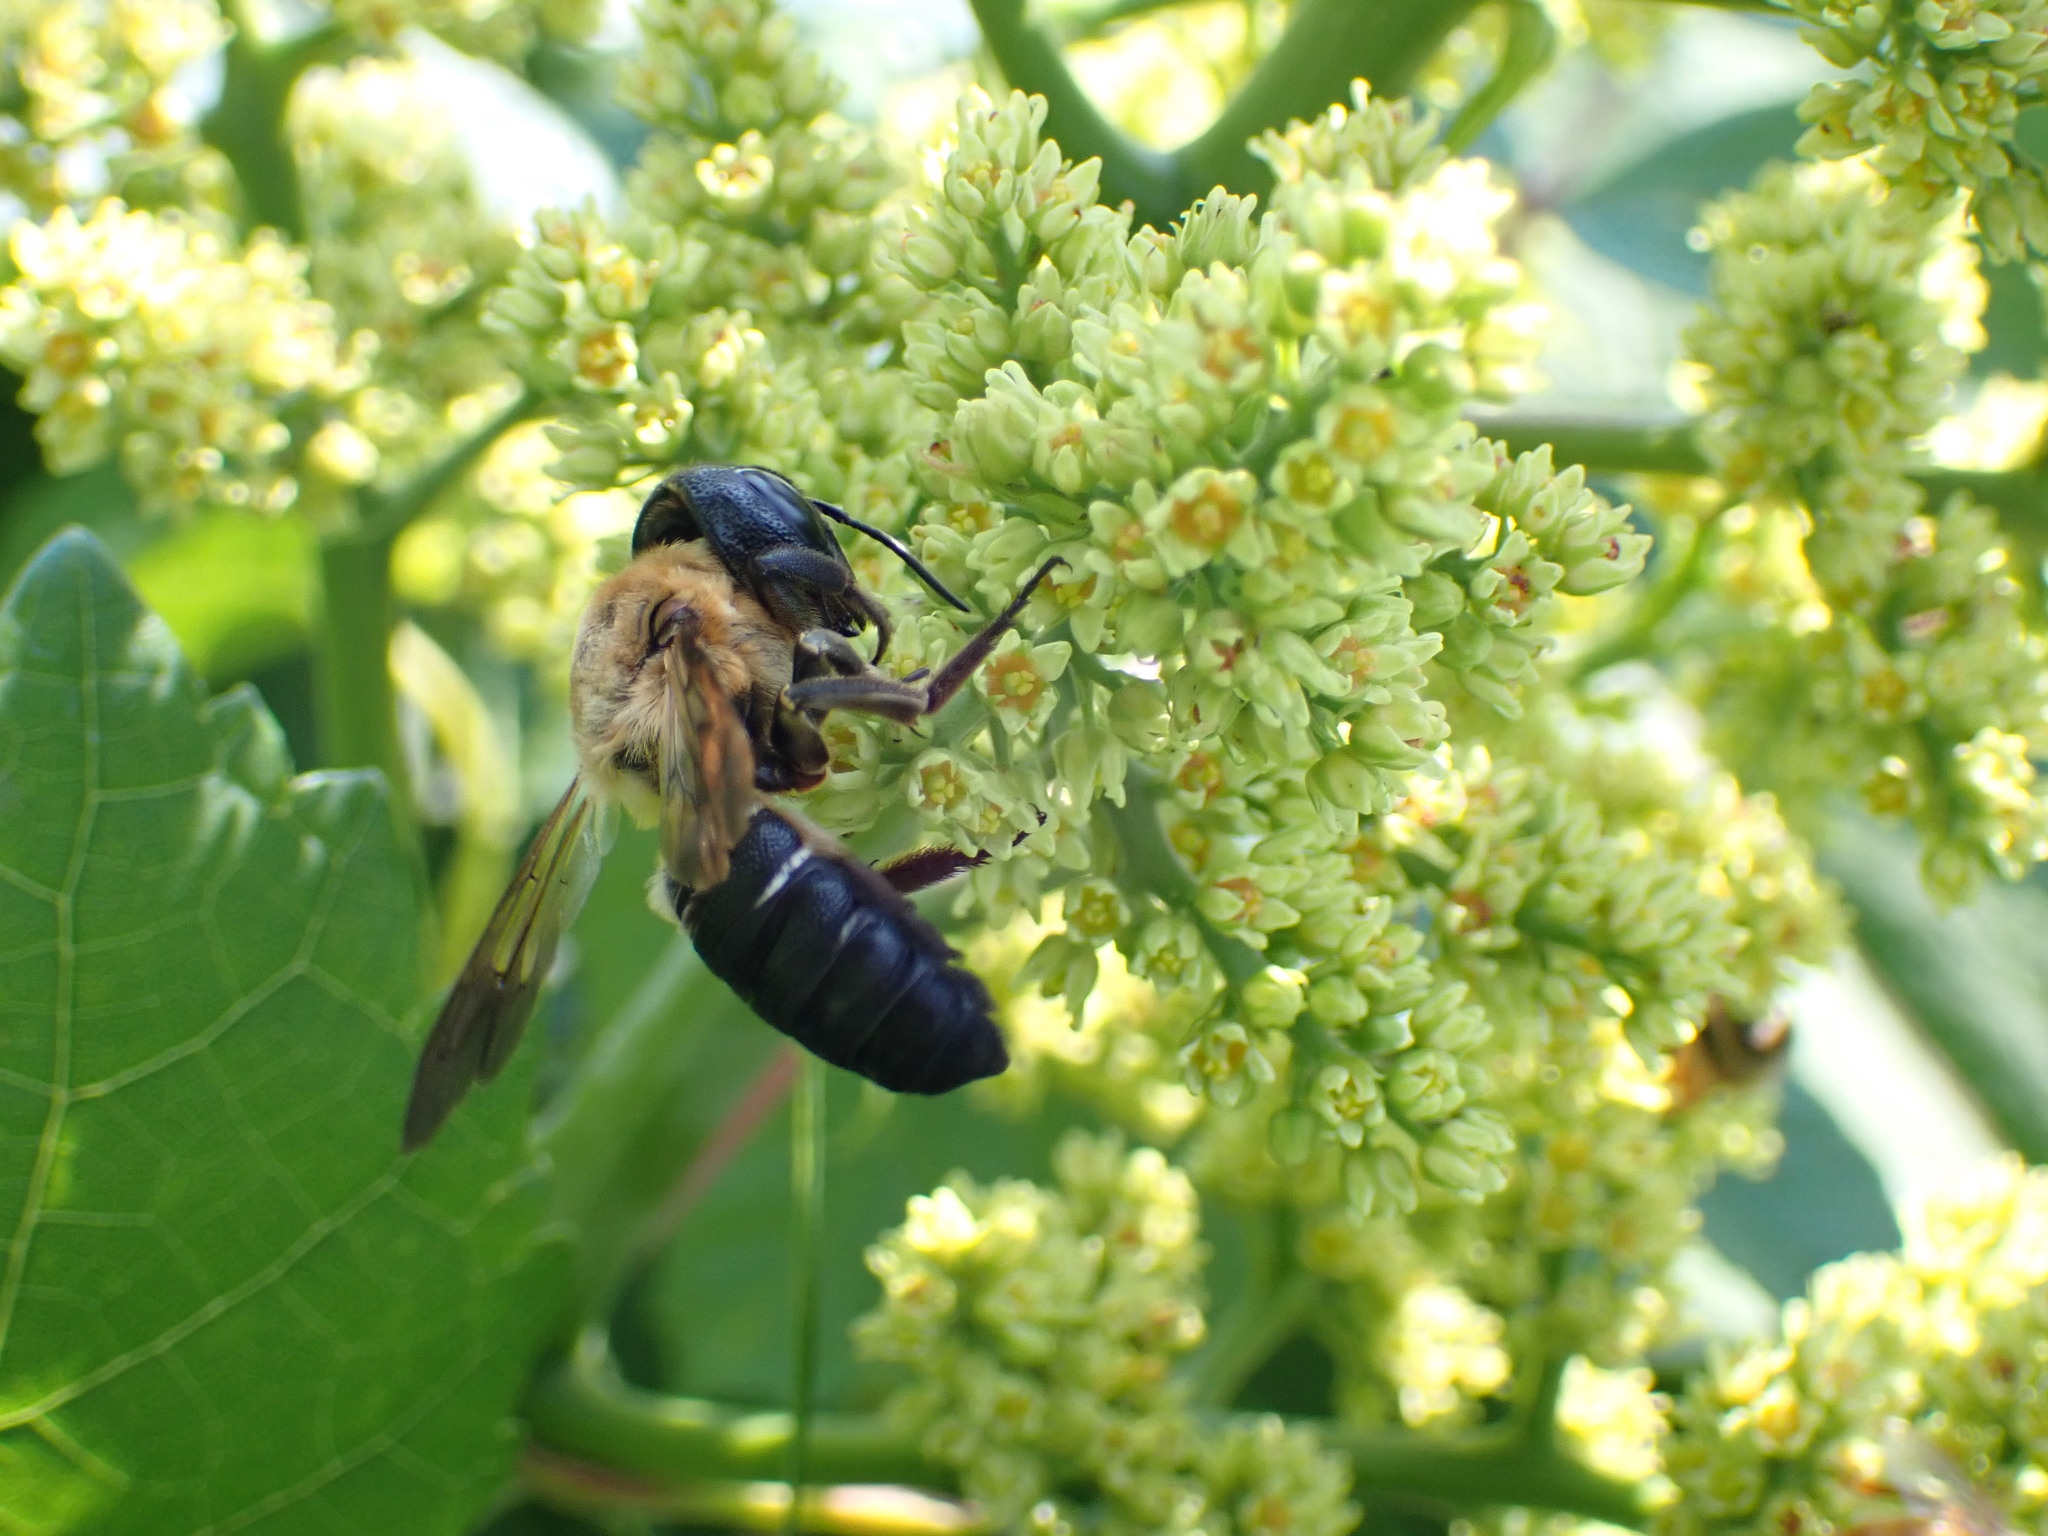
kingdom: Animalia
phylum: Arthropoda
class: Insecta
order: Hymenoptera
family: Megachilidae
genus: Megachile
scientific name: Megachile sculpturalis
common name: Sculptured resin bee
